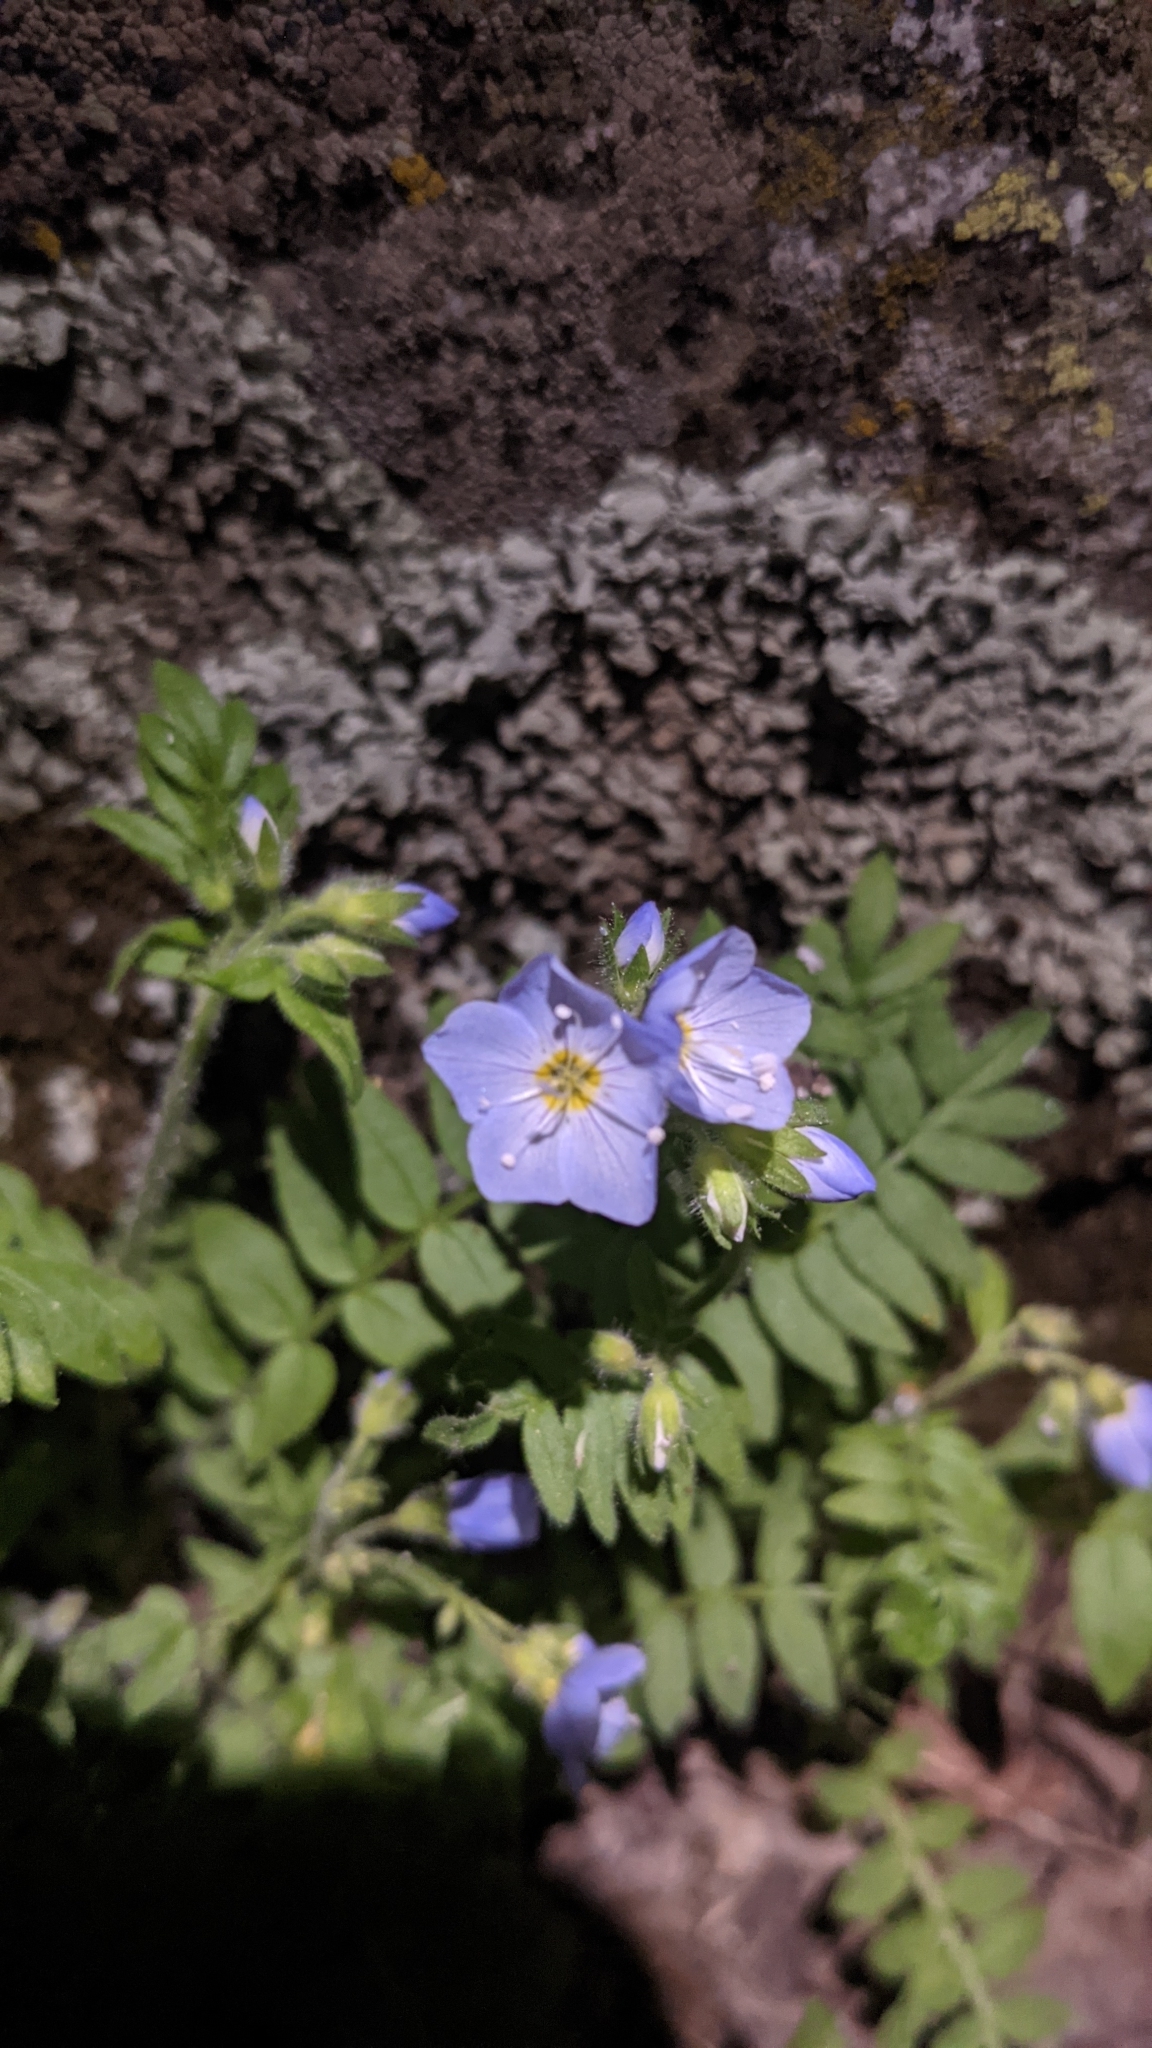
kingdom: Plantae
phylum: Tracheophyta
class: Magnoliopsida
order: Ericales
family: Polemoniaceae
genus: Polemonium
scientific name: Polemonium pulcherrimum
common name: Short jacob's-ladder
